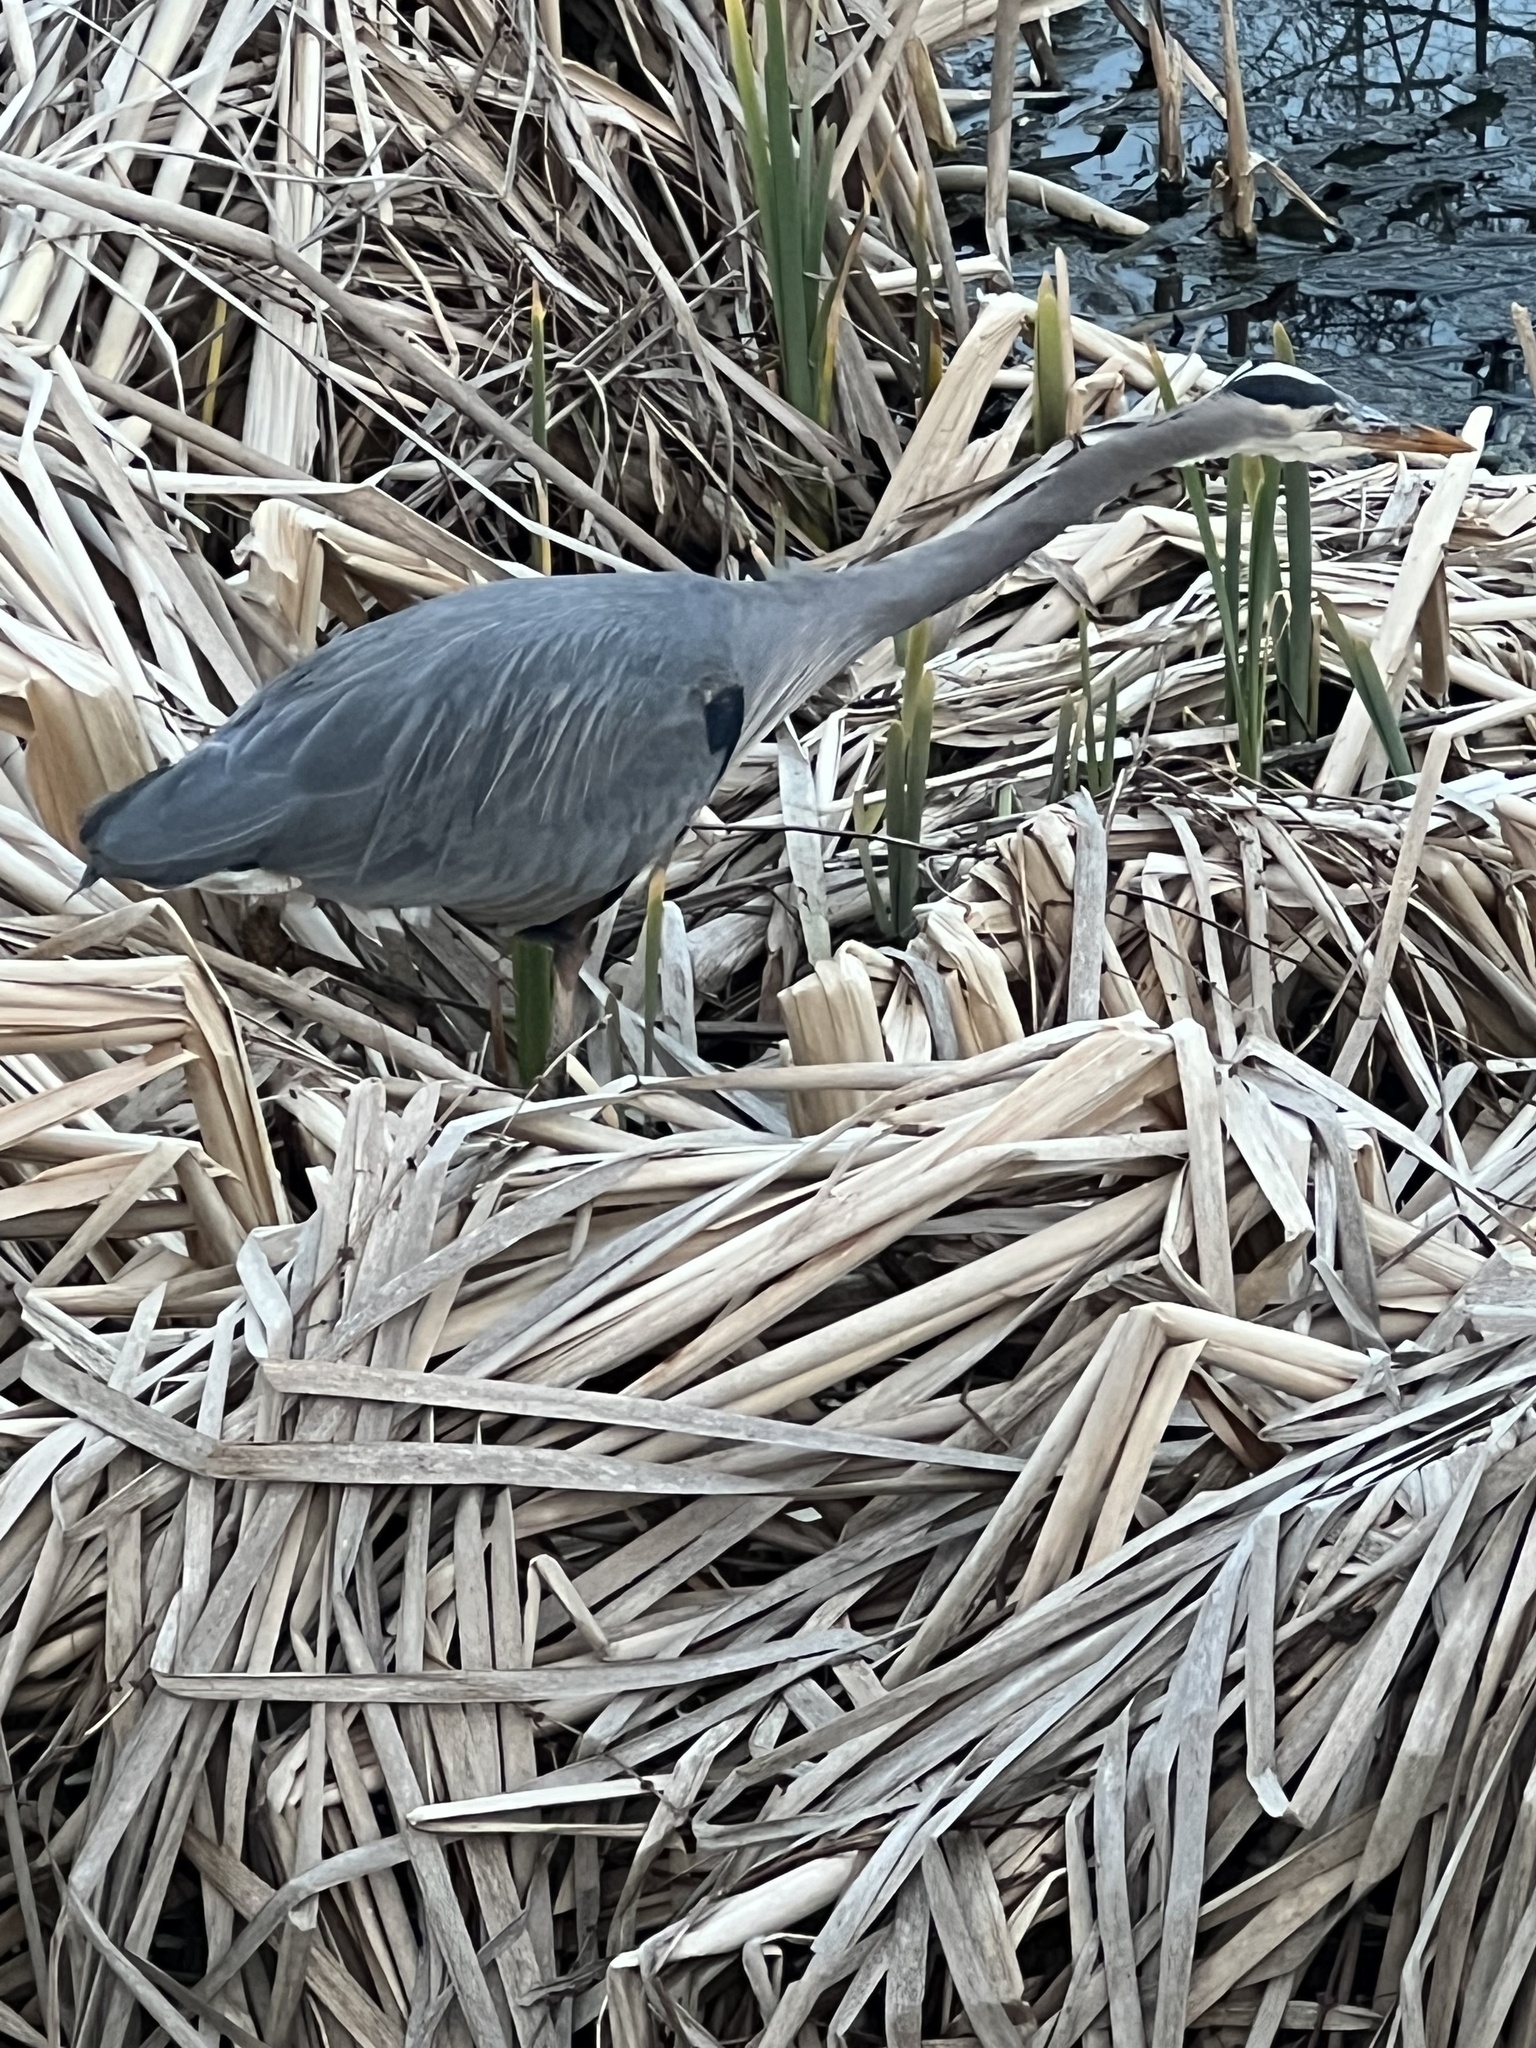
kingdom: Animalia
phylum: Chordata
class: Aves
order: Pelecaniformes
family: Ardeidae
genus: Ardea
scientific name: Ardea herodias
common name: Great blue heron
